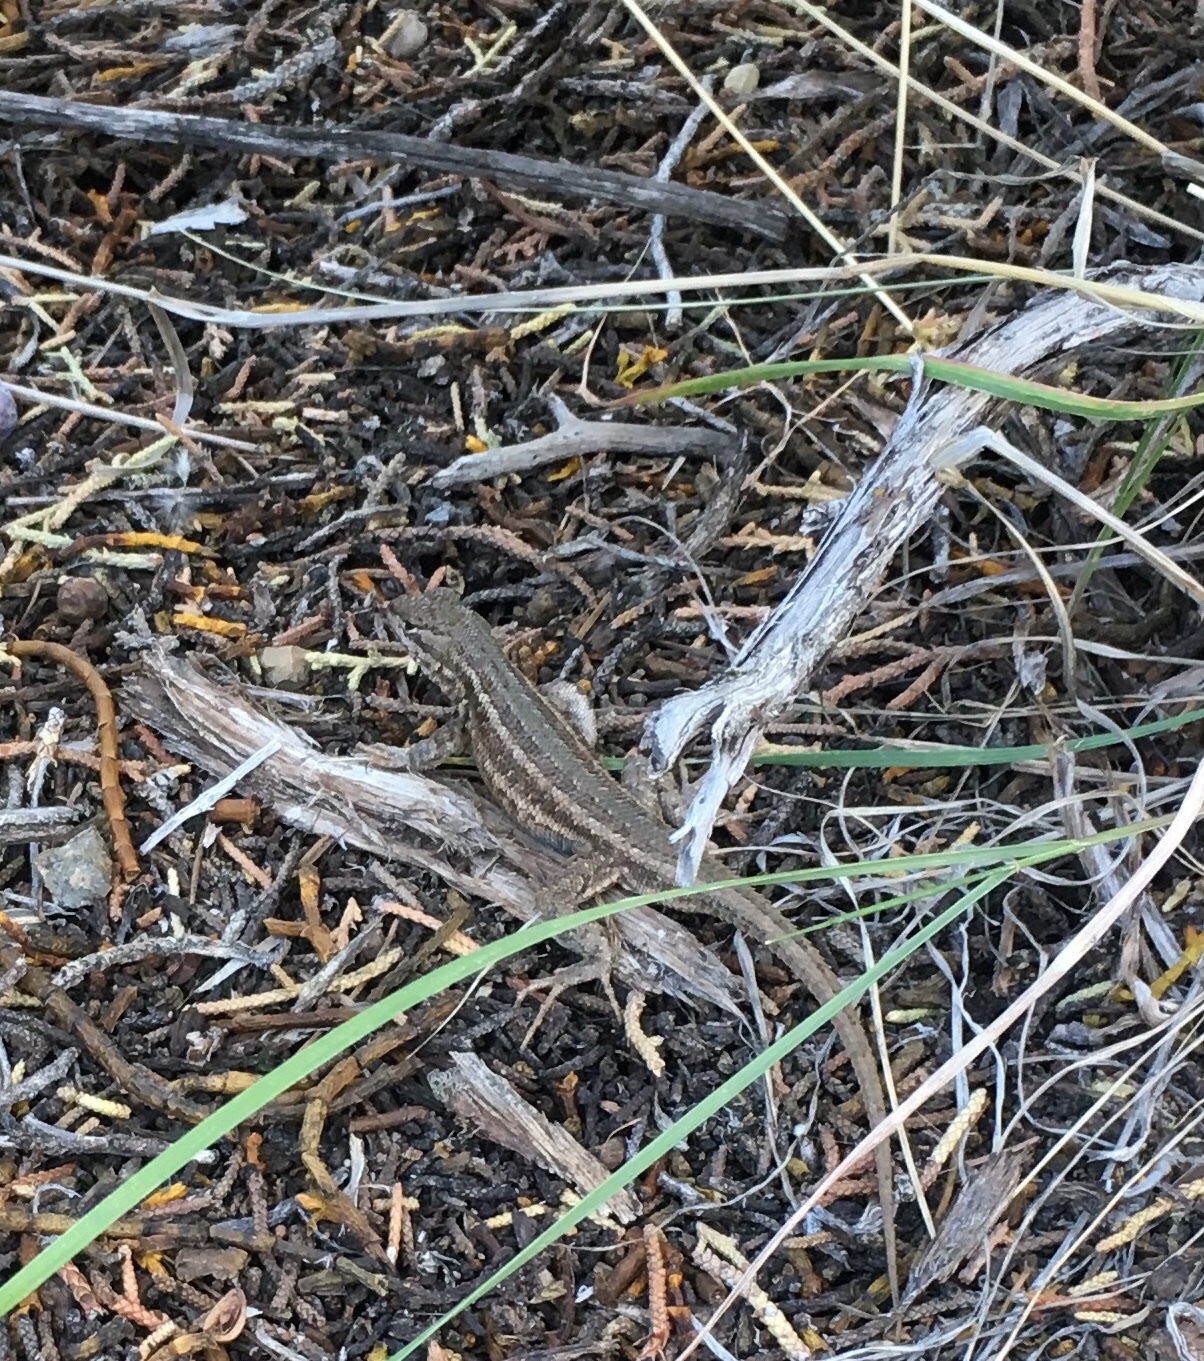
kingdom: Animalia
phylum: Chordata
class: Squamata
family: Phrynosomatidae
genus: Sceloporus
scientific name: Sceloporus graciosus
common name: Sagebrush lizard
